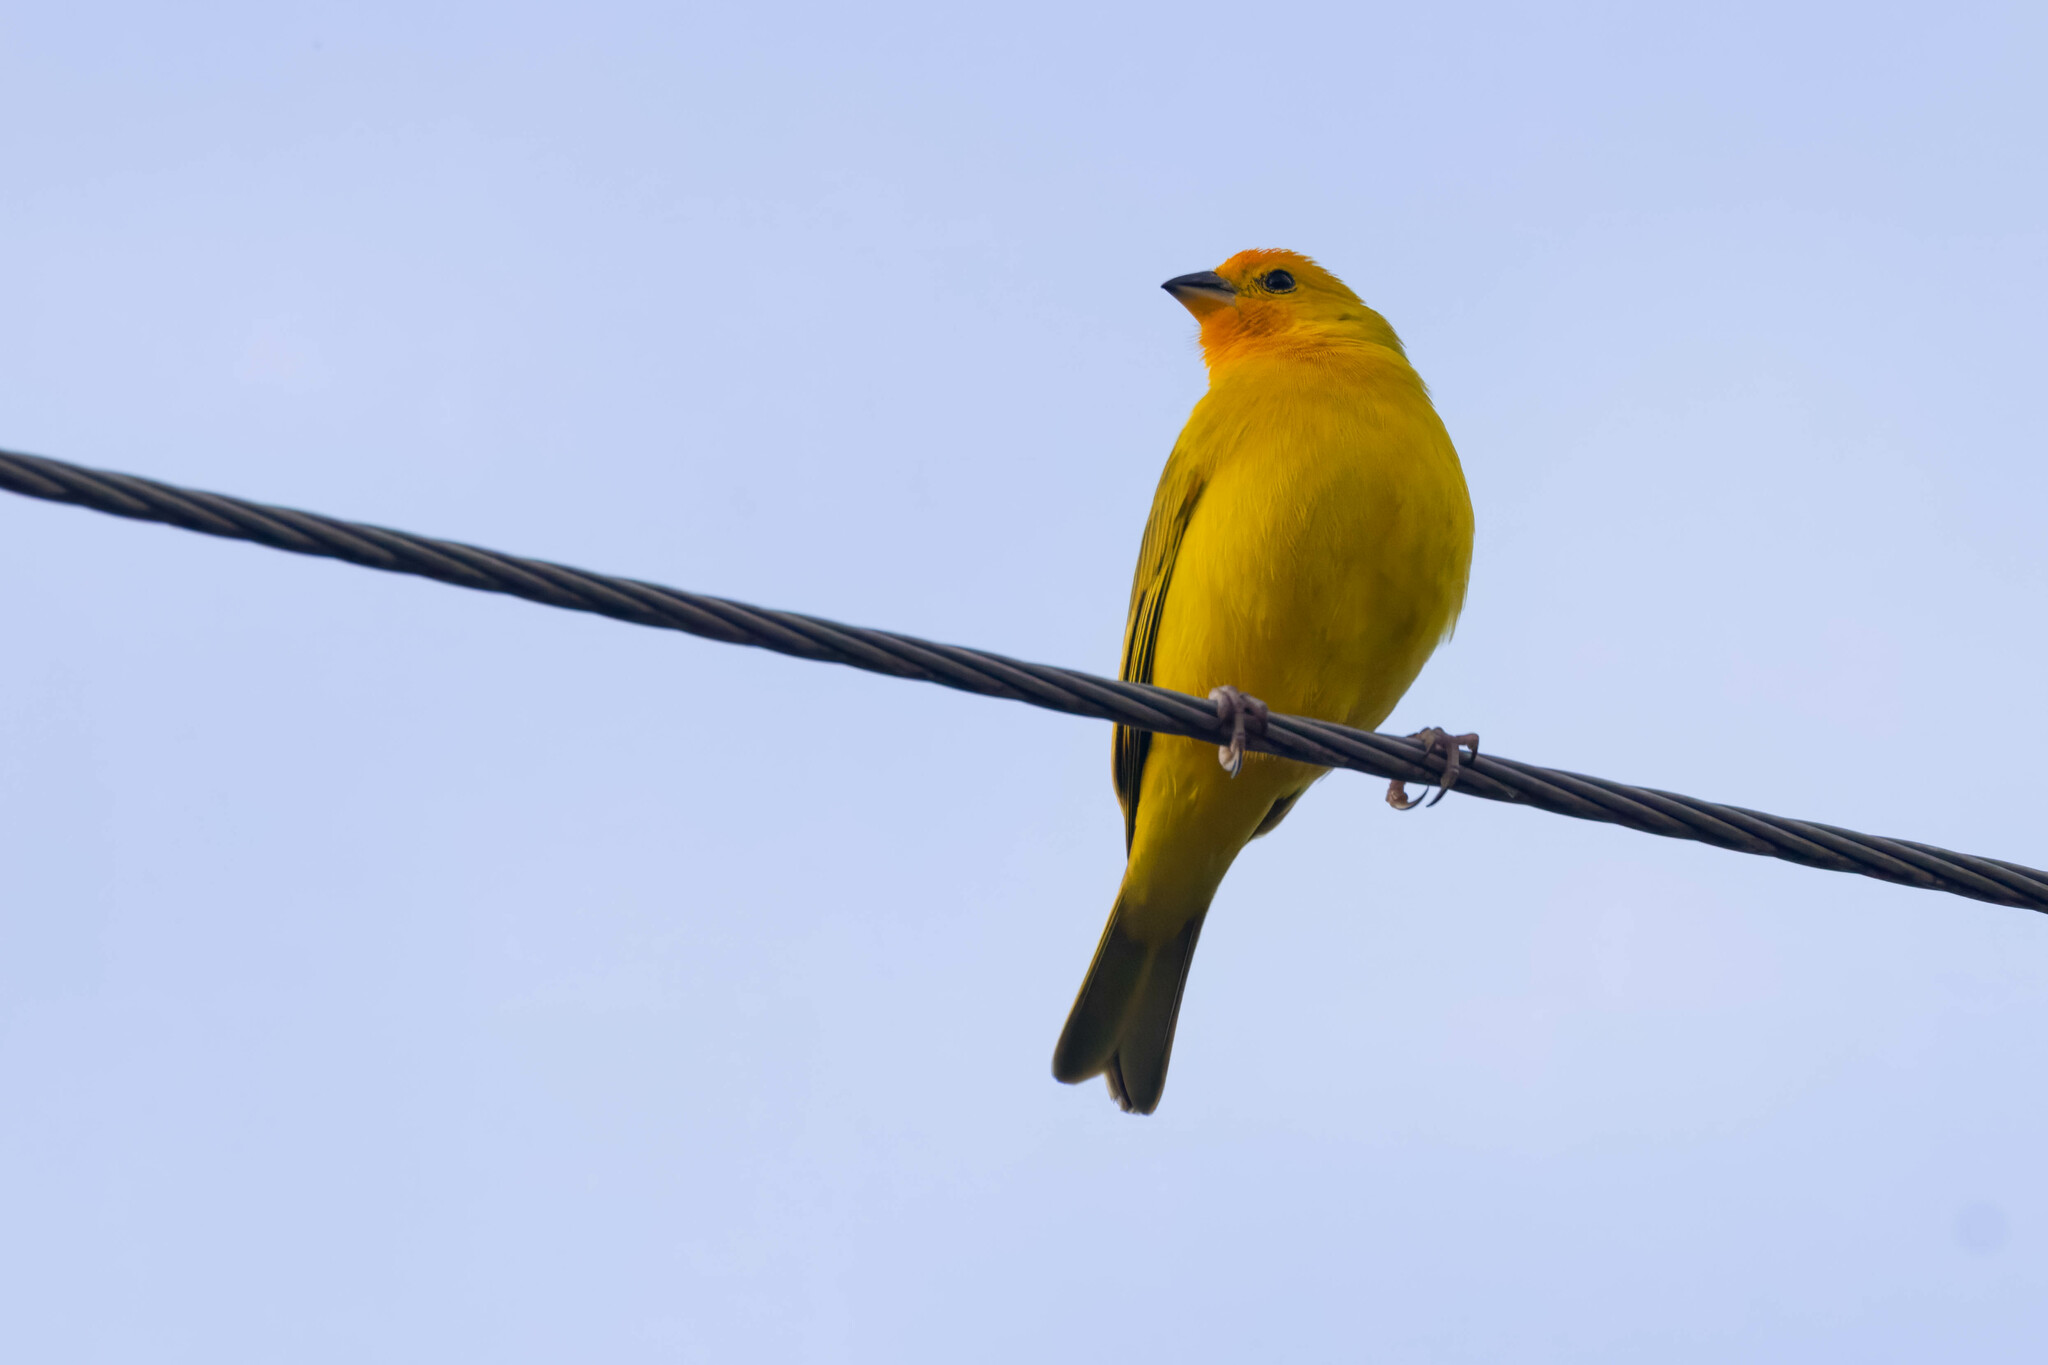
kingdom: Animalia
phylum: Chordata
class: Aves
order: Passeriformes
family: Thraupidae
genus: Sicalis
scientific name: Sicalis flaveola
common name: Saffron finch
